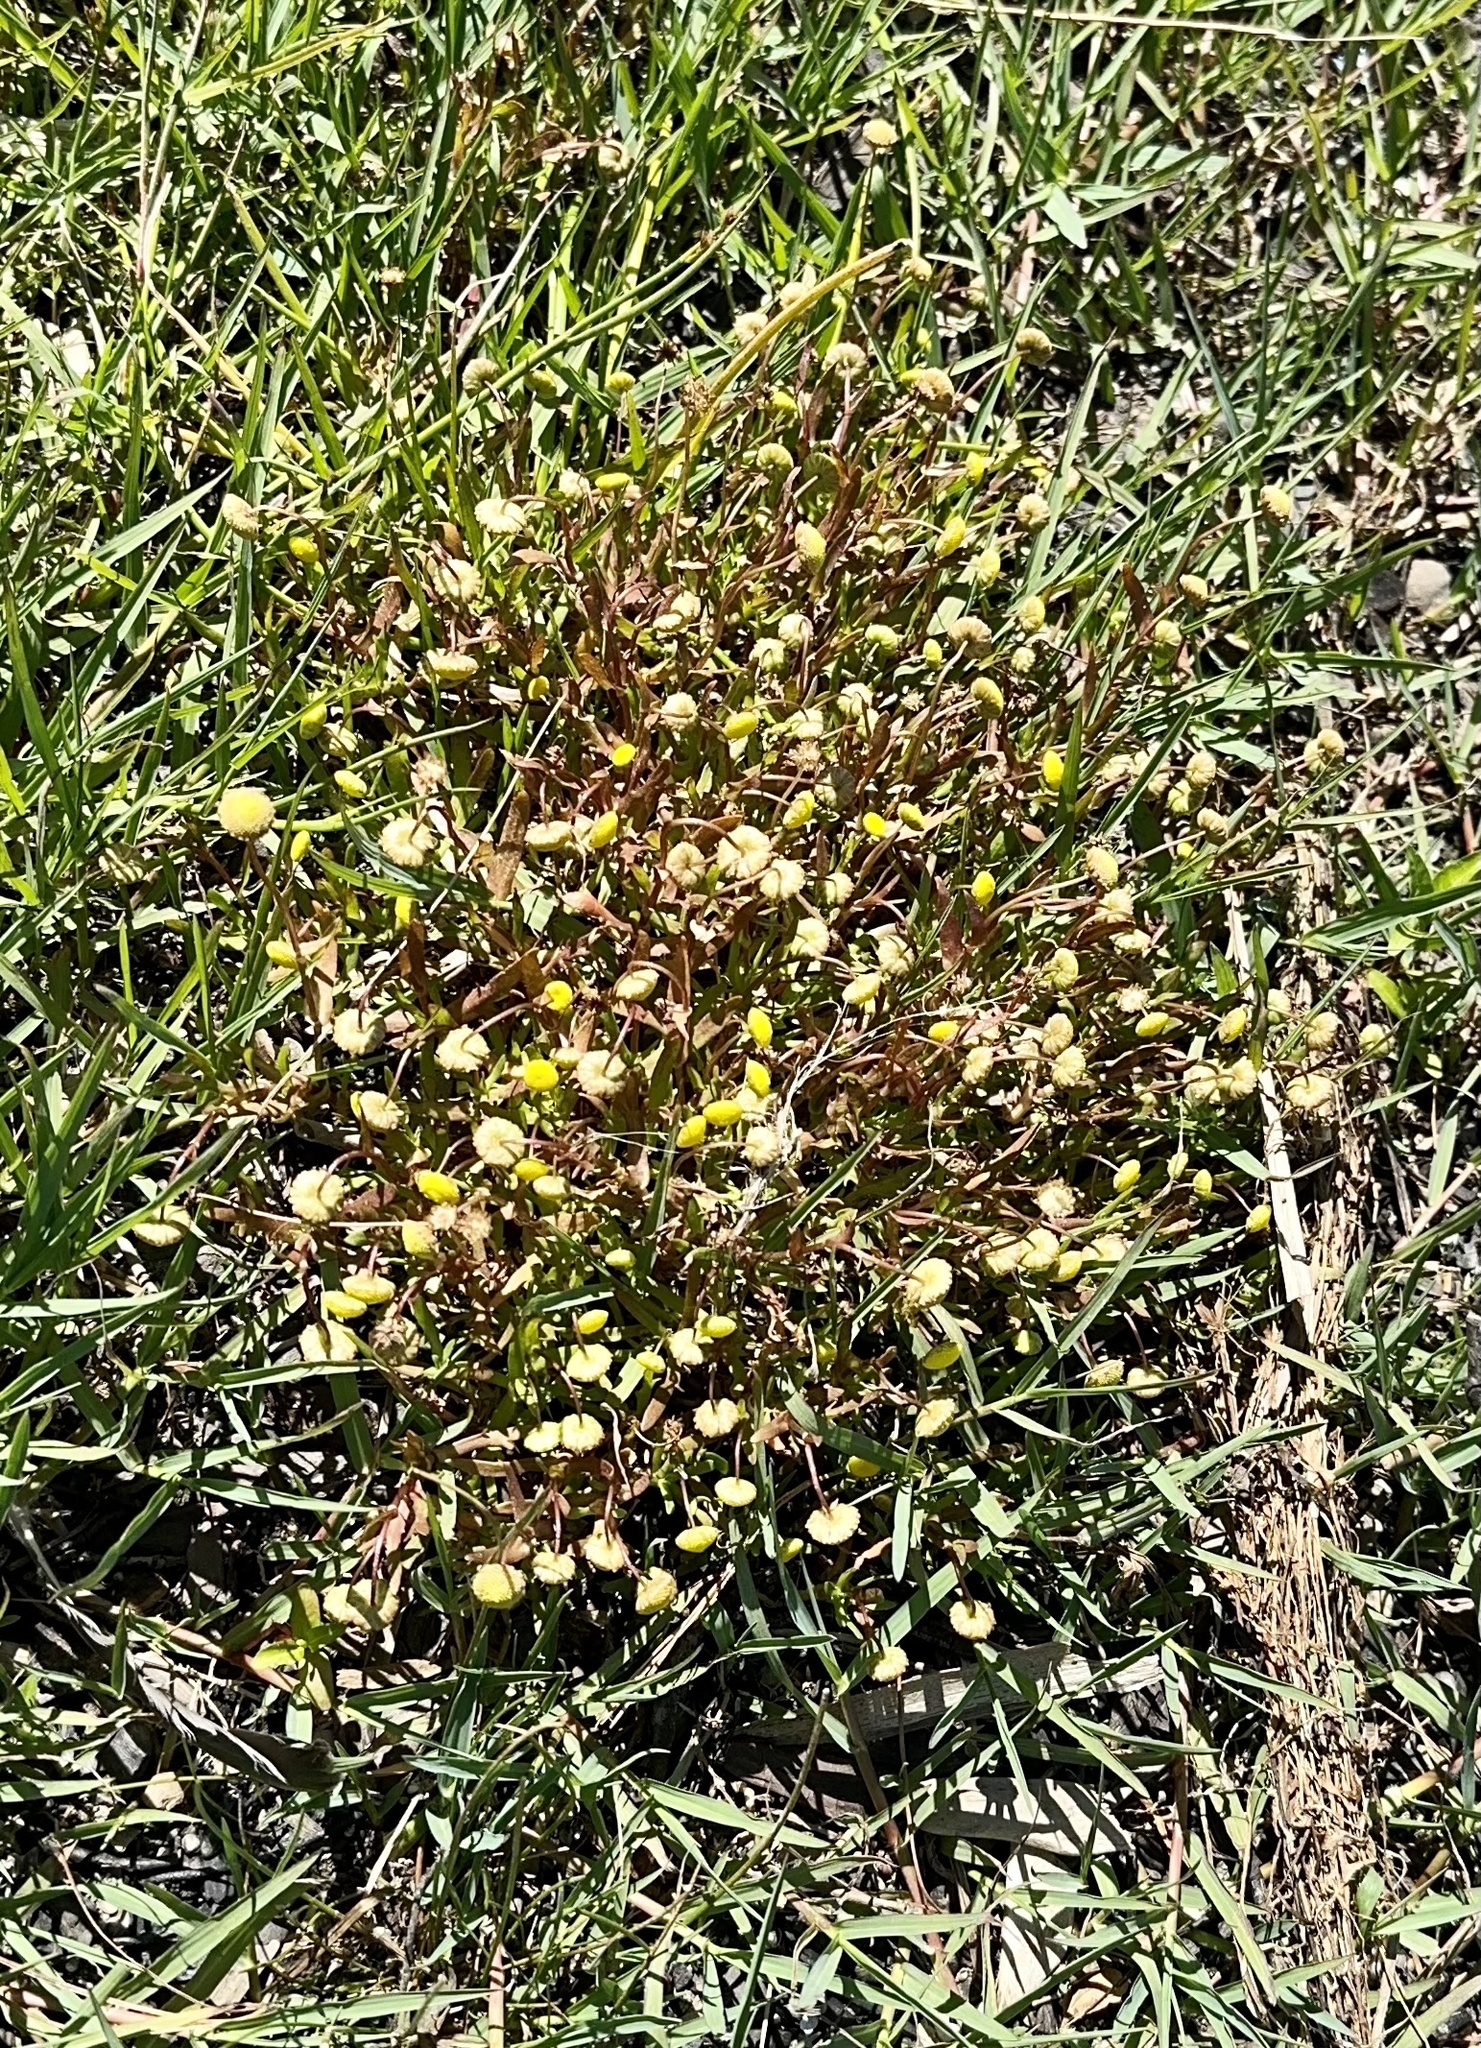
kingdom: Plantae
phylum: Tracheophyta
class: Magnoliopsida
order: Asterales
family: Asteraceae
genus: Cotula
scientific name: Cotula coronopifolia
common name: Buttonweed
